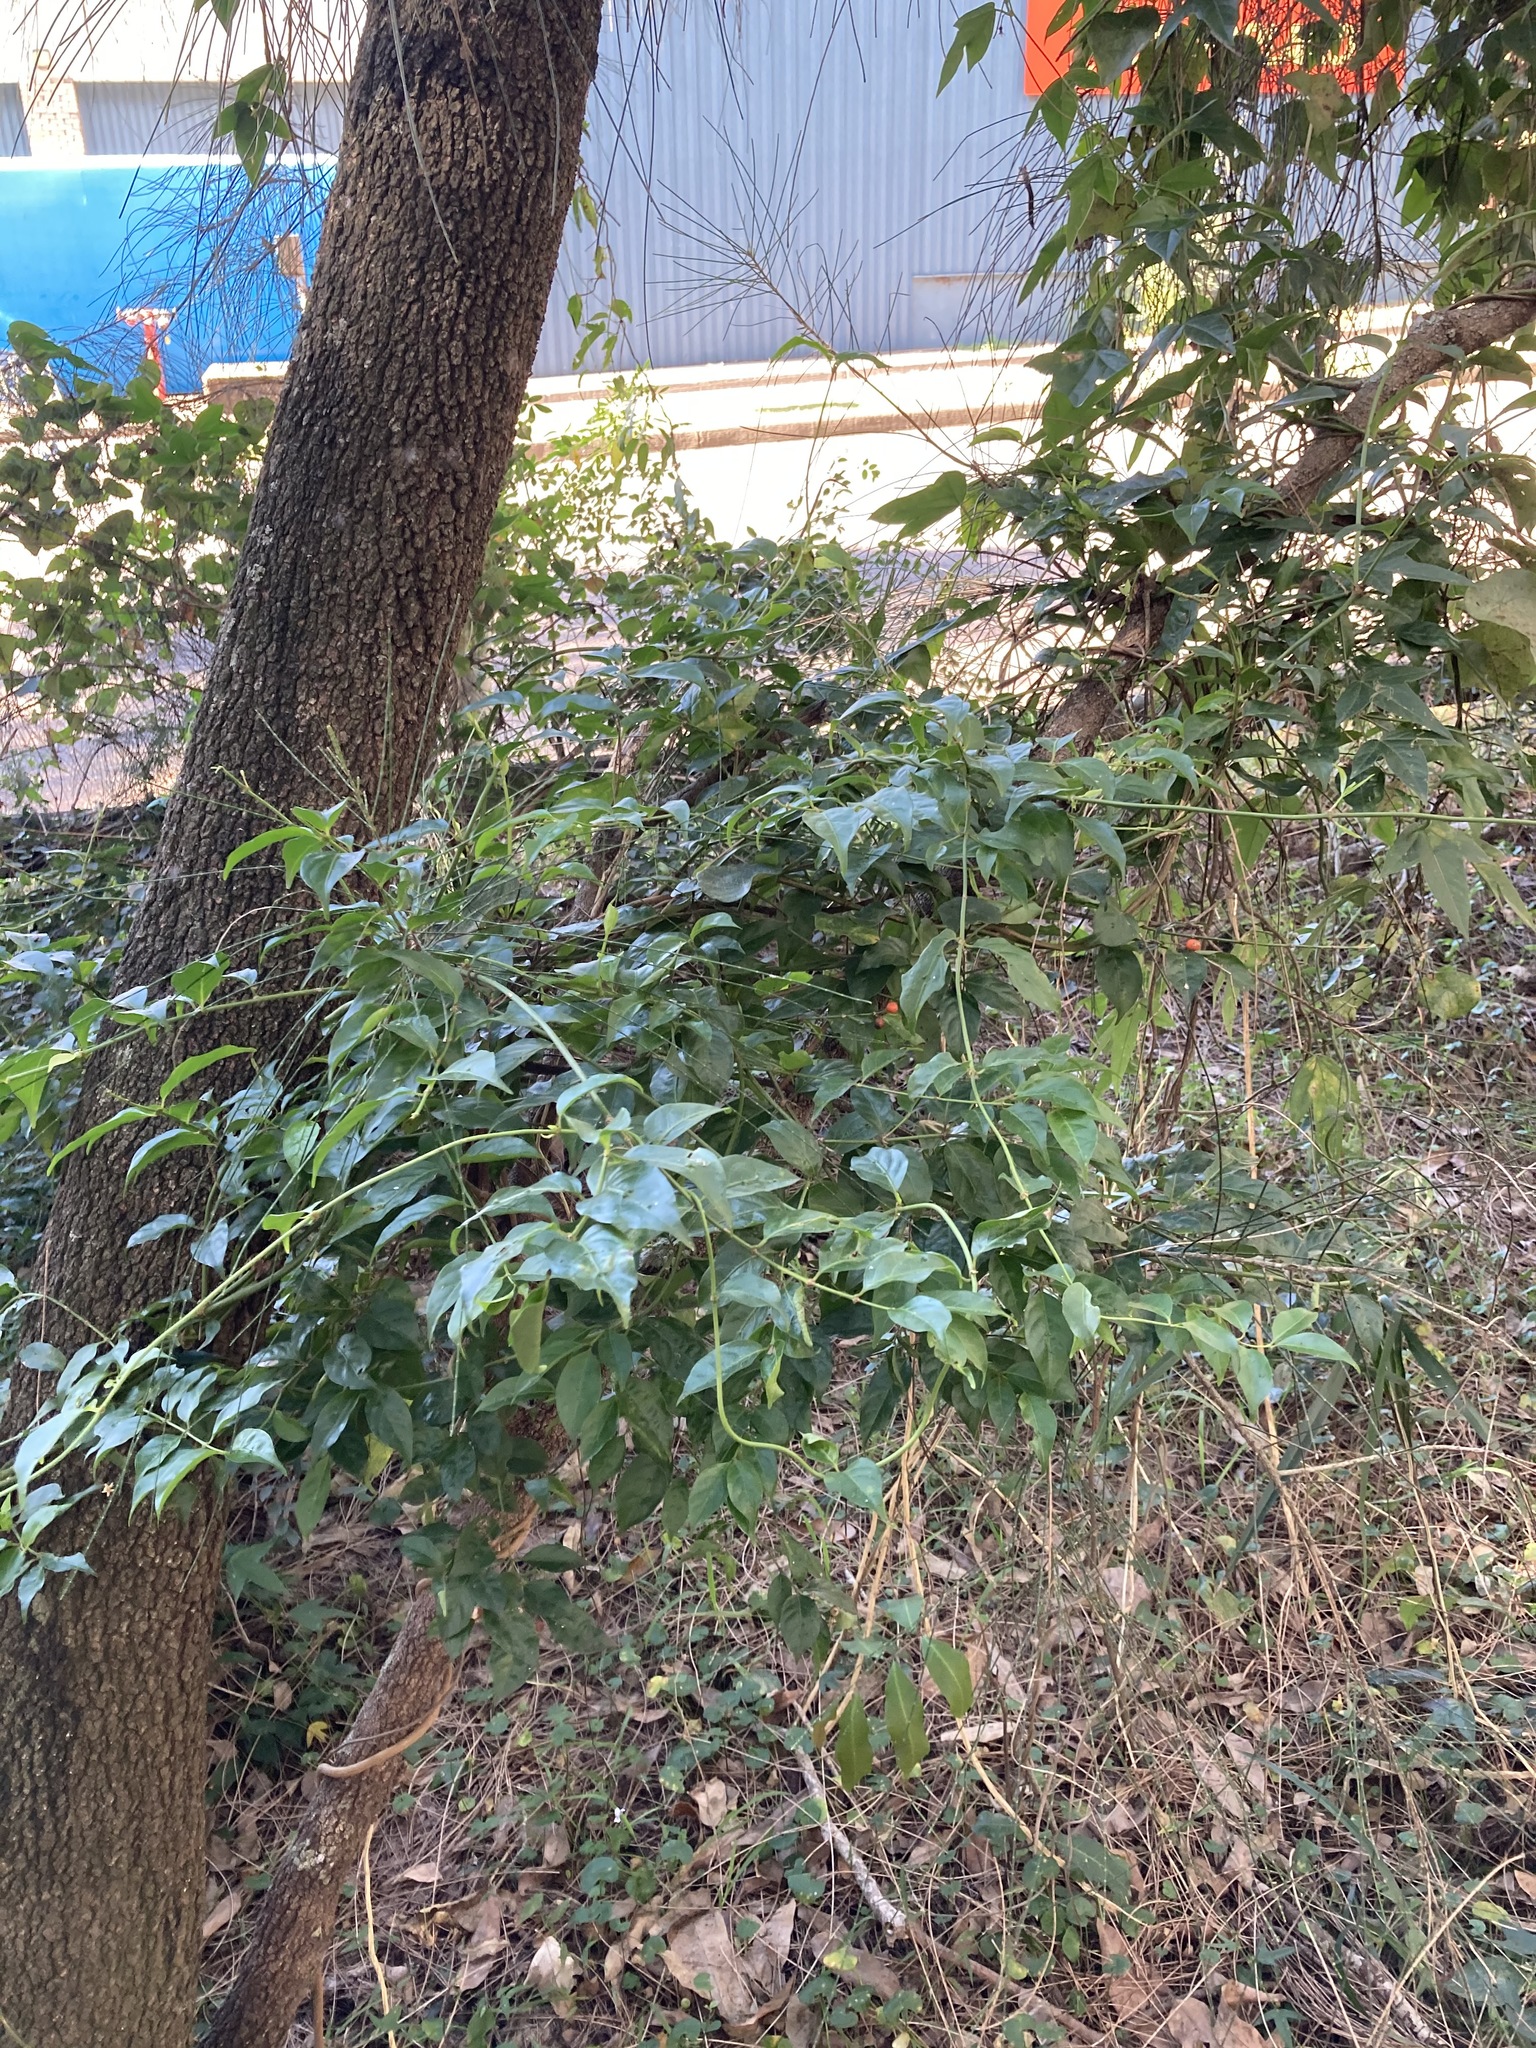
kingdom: Plantae
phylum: Tracheophyta
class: Magnoliopsida
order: Gentianales
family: Rubiaceae
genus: Gynochthodes
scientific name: Gynochthodes jasminoides
